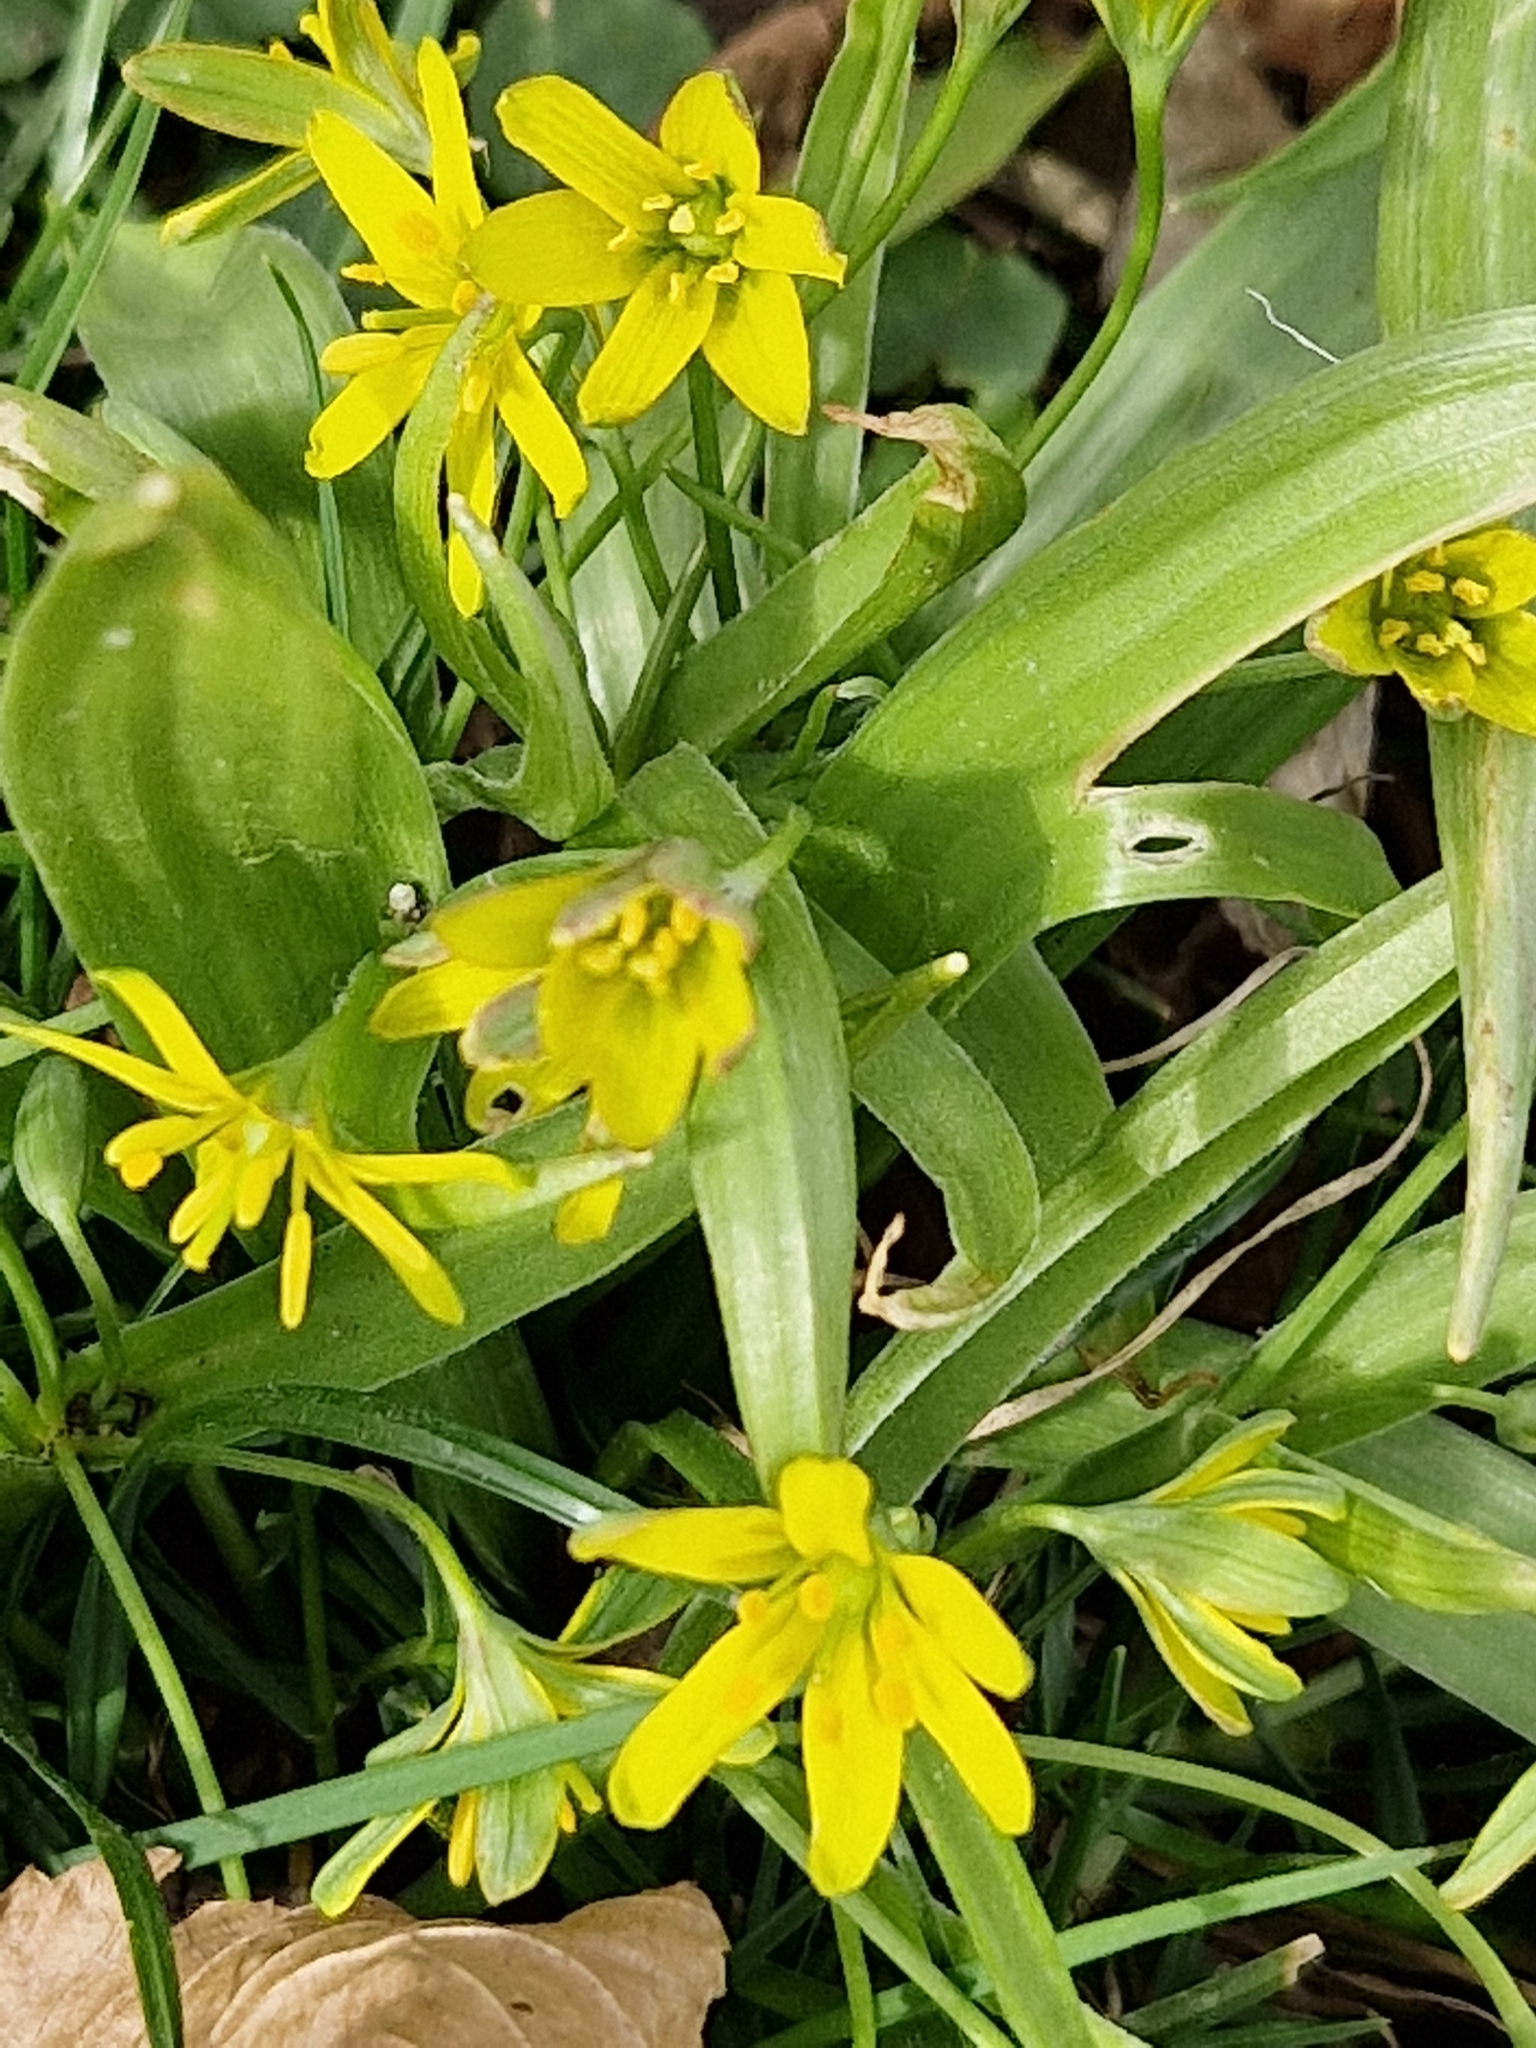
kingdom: Plantae
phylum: Tracheophyta
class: Liliopsida
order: Liliales
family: Liliaceae
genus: Gagea
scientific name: Gagea lutea
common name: Yellow star-of-bethlehem
